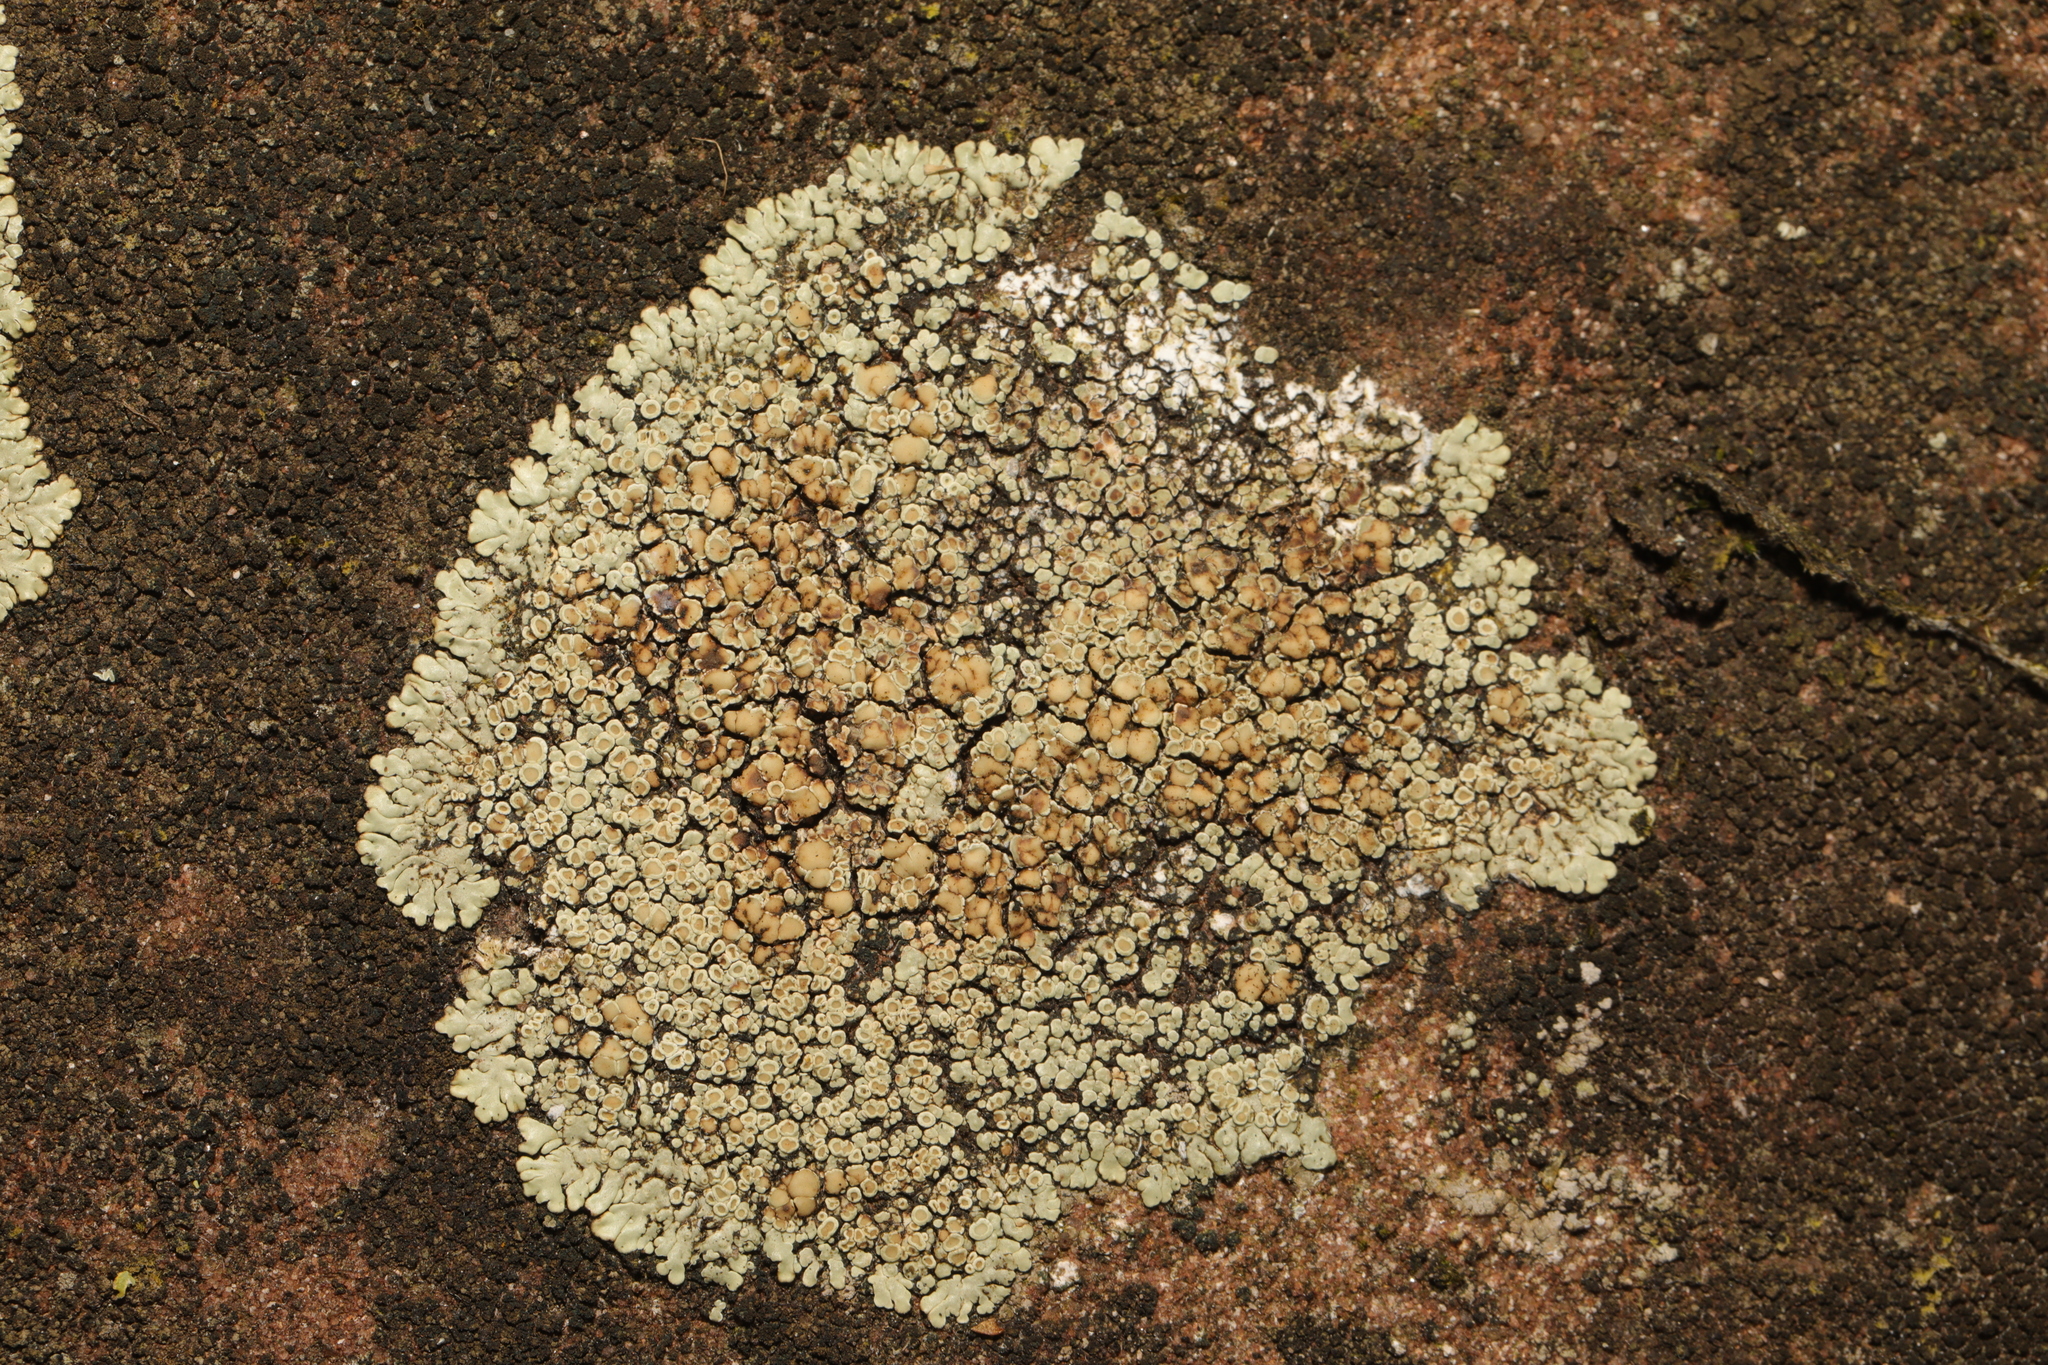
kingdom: Fungi
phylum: Ascomycota
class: Lecanoromycetes
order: Lecanorales
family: Lecanoraceae
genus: Protoparmeliopsis
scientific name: Protoparmeliopsis muralis
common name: Stonewall rim lichen
